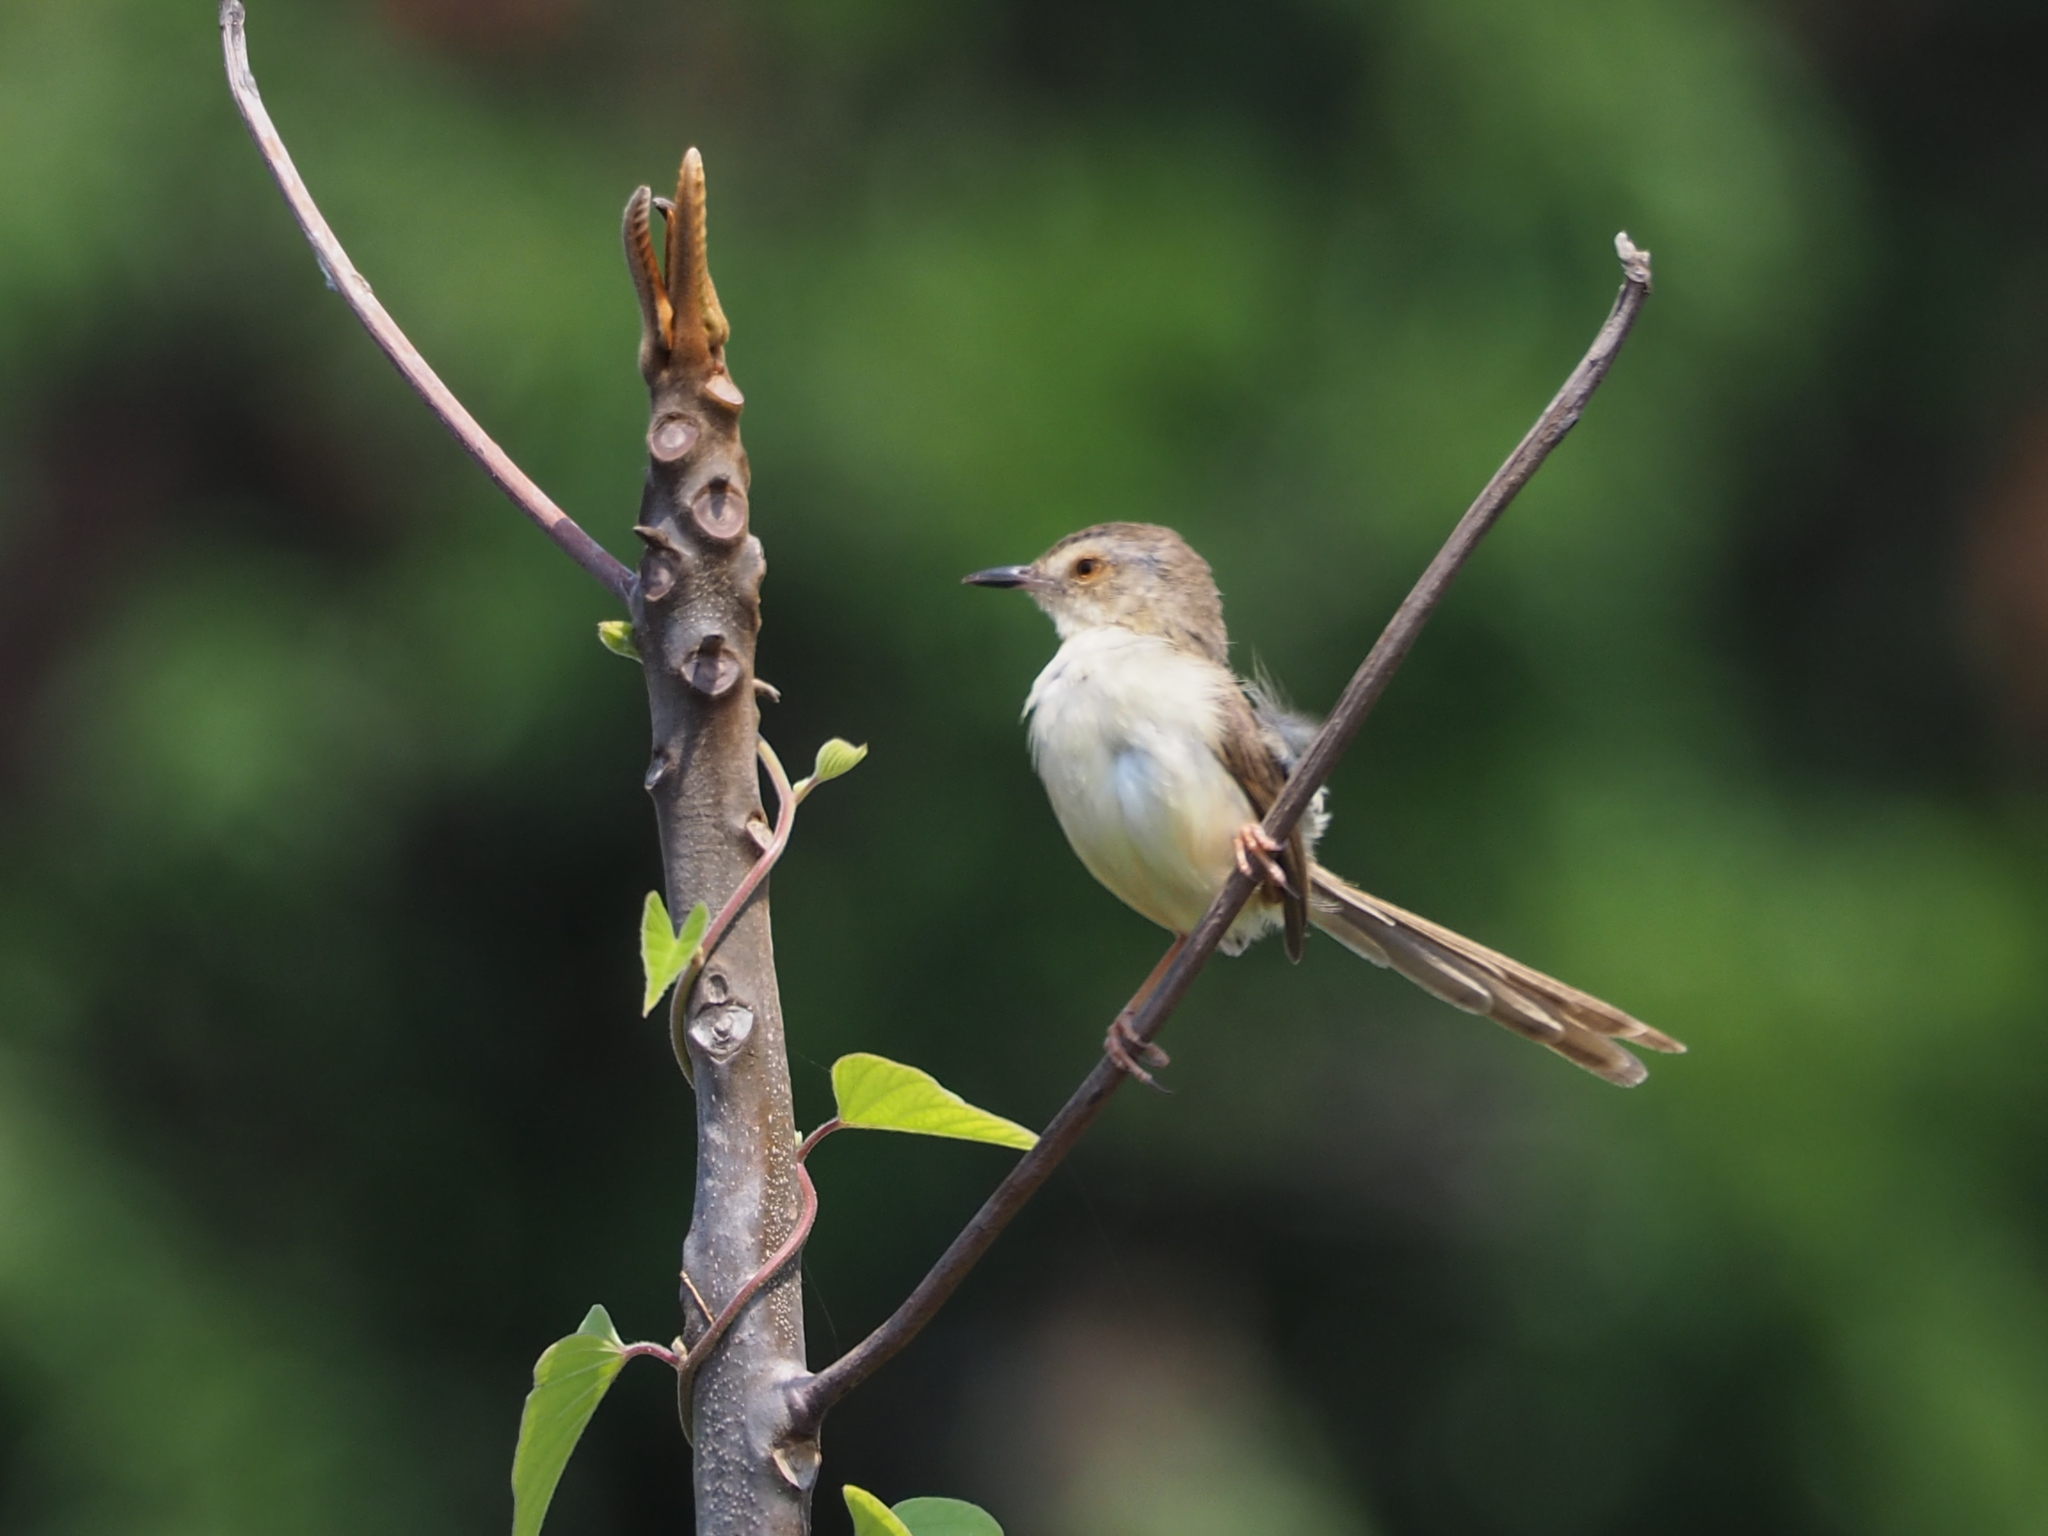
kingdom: Animalia
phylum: Chordata
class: Aves
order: Passeriformes
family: Cisticolidae
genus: Prinia
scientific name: Prinia inornata
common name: Plain prinia
